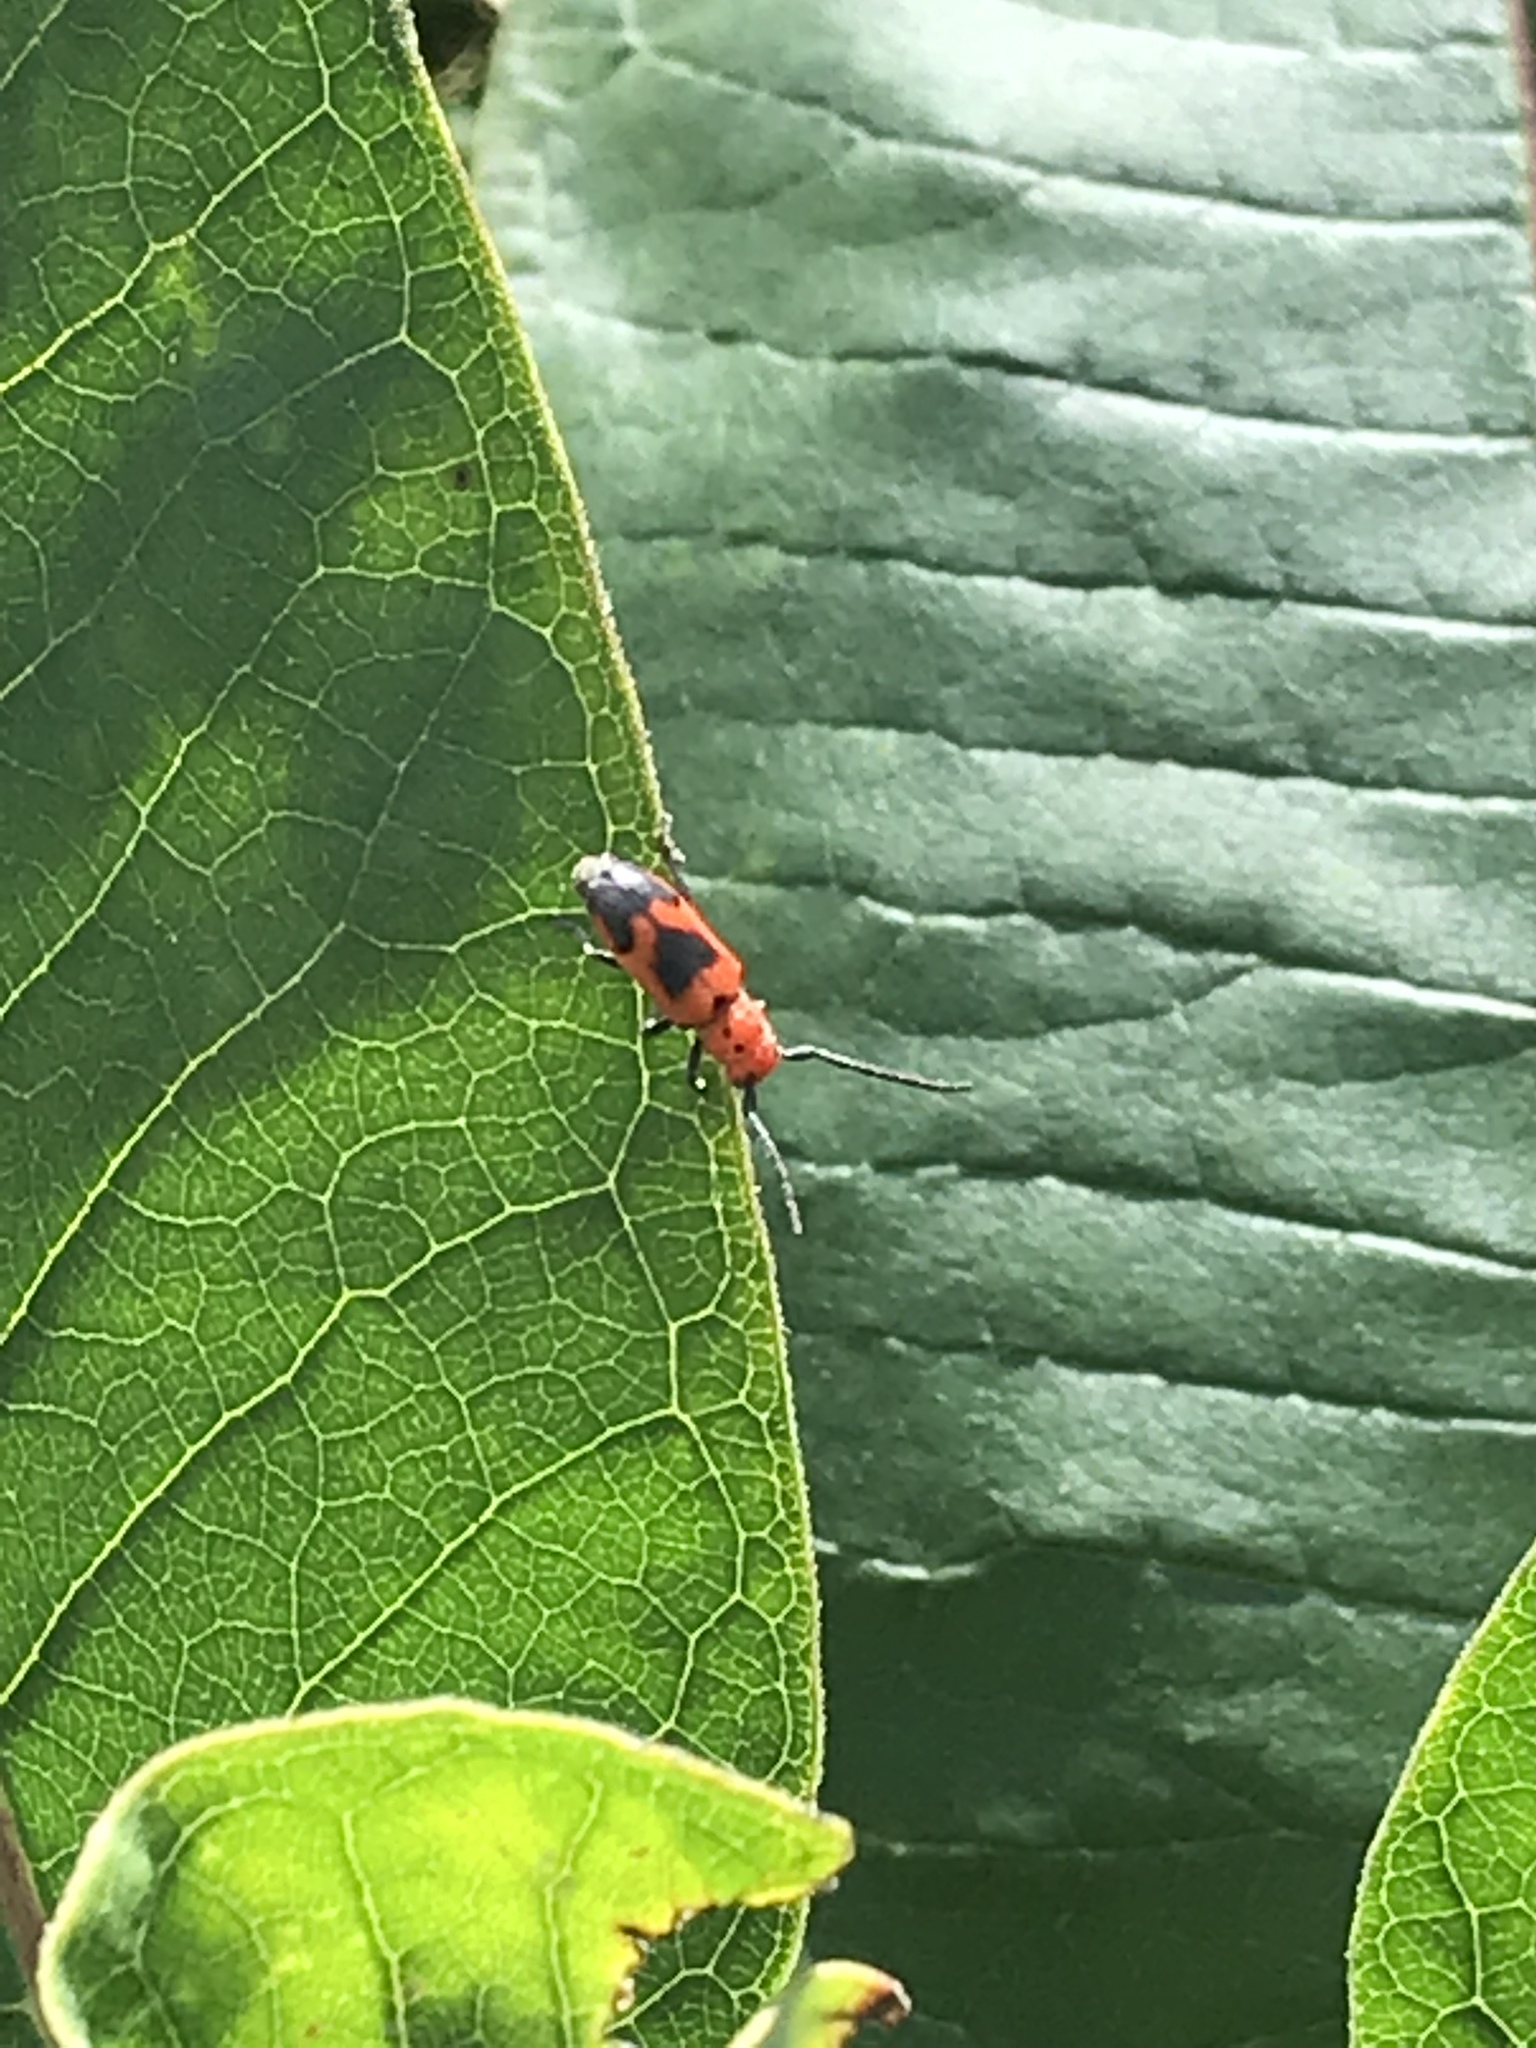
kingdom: Animalia
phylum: Arthropoda
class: Insecta
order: Coleoptera
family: Cerambycidae
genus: Tetraopes
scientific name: Tetraopes melanurus
